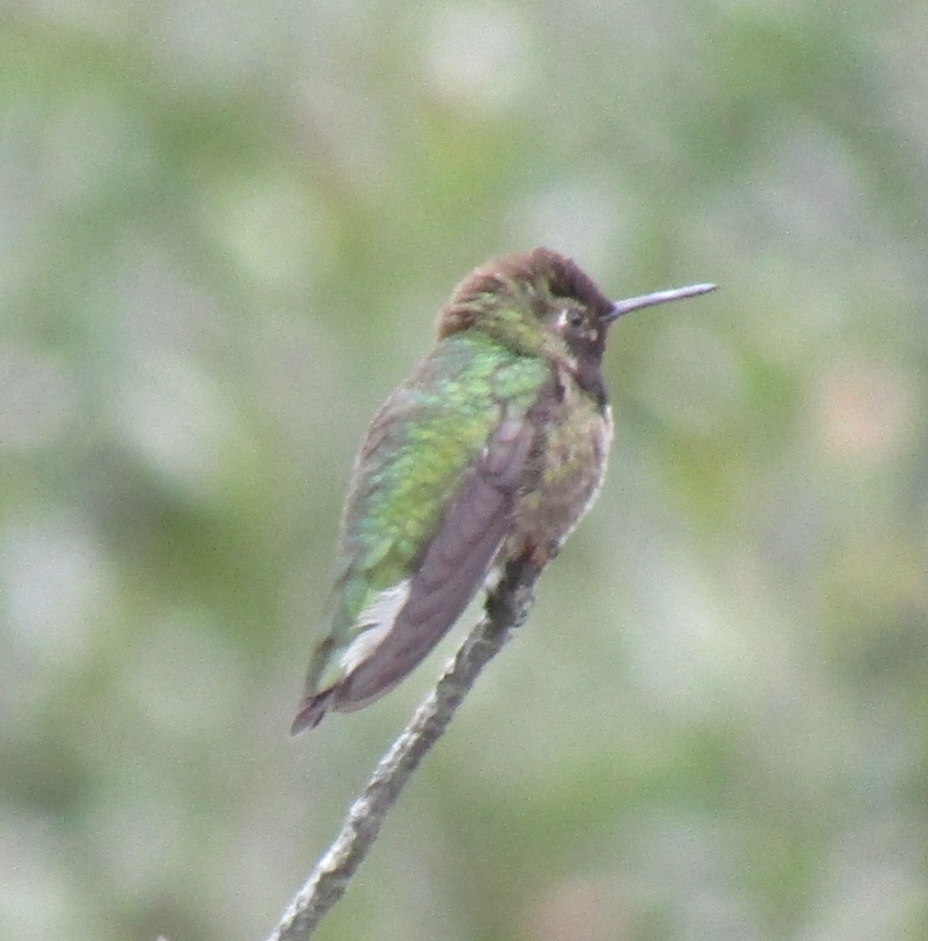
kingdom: Animalia
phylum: Chordata
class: Aves
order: Apodiformes
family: Trochilidae
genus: Calypte
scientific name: Calypte anna
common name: Anna's hummingbird
